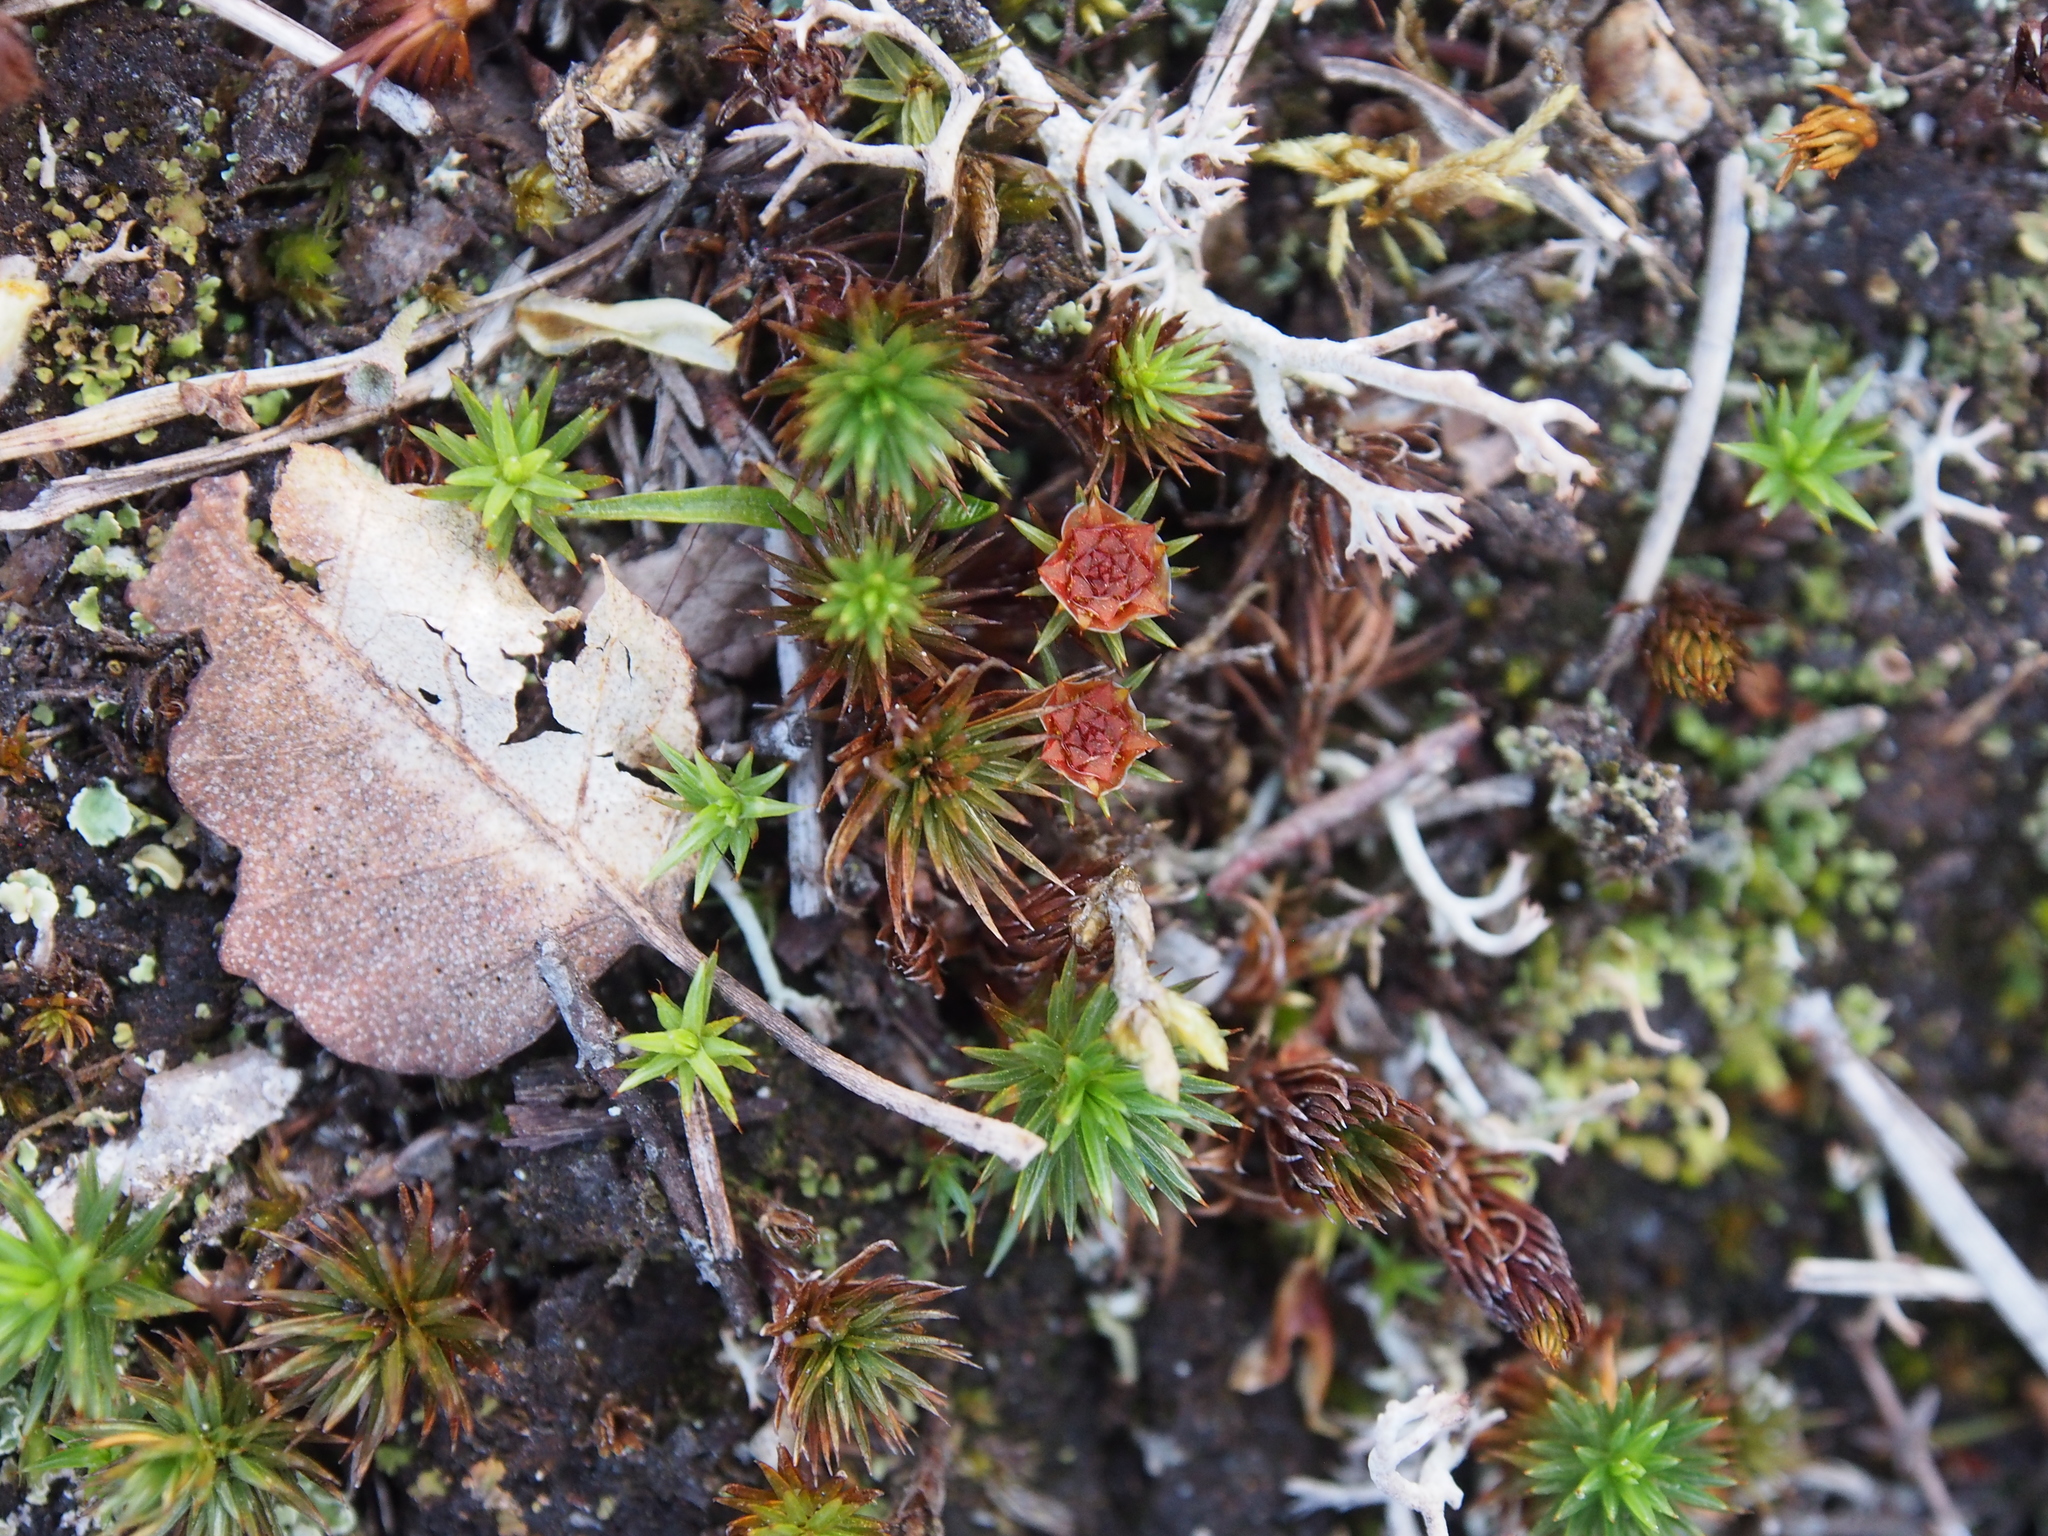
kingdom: Plantae
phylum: Bryophyta
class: Polytrichopsida
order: Polytrichales
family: Polytrichaceae
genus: Polytrichum
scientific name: Polytrichum juniperinum
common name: Juniper haircap moss
